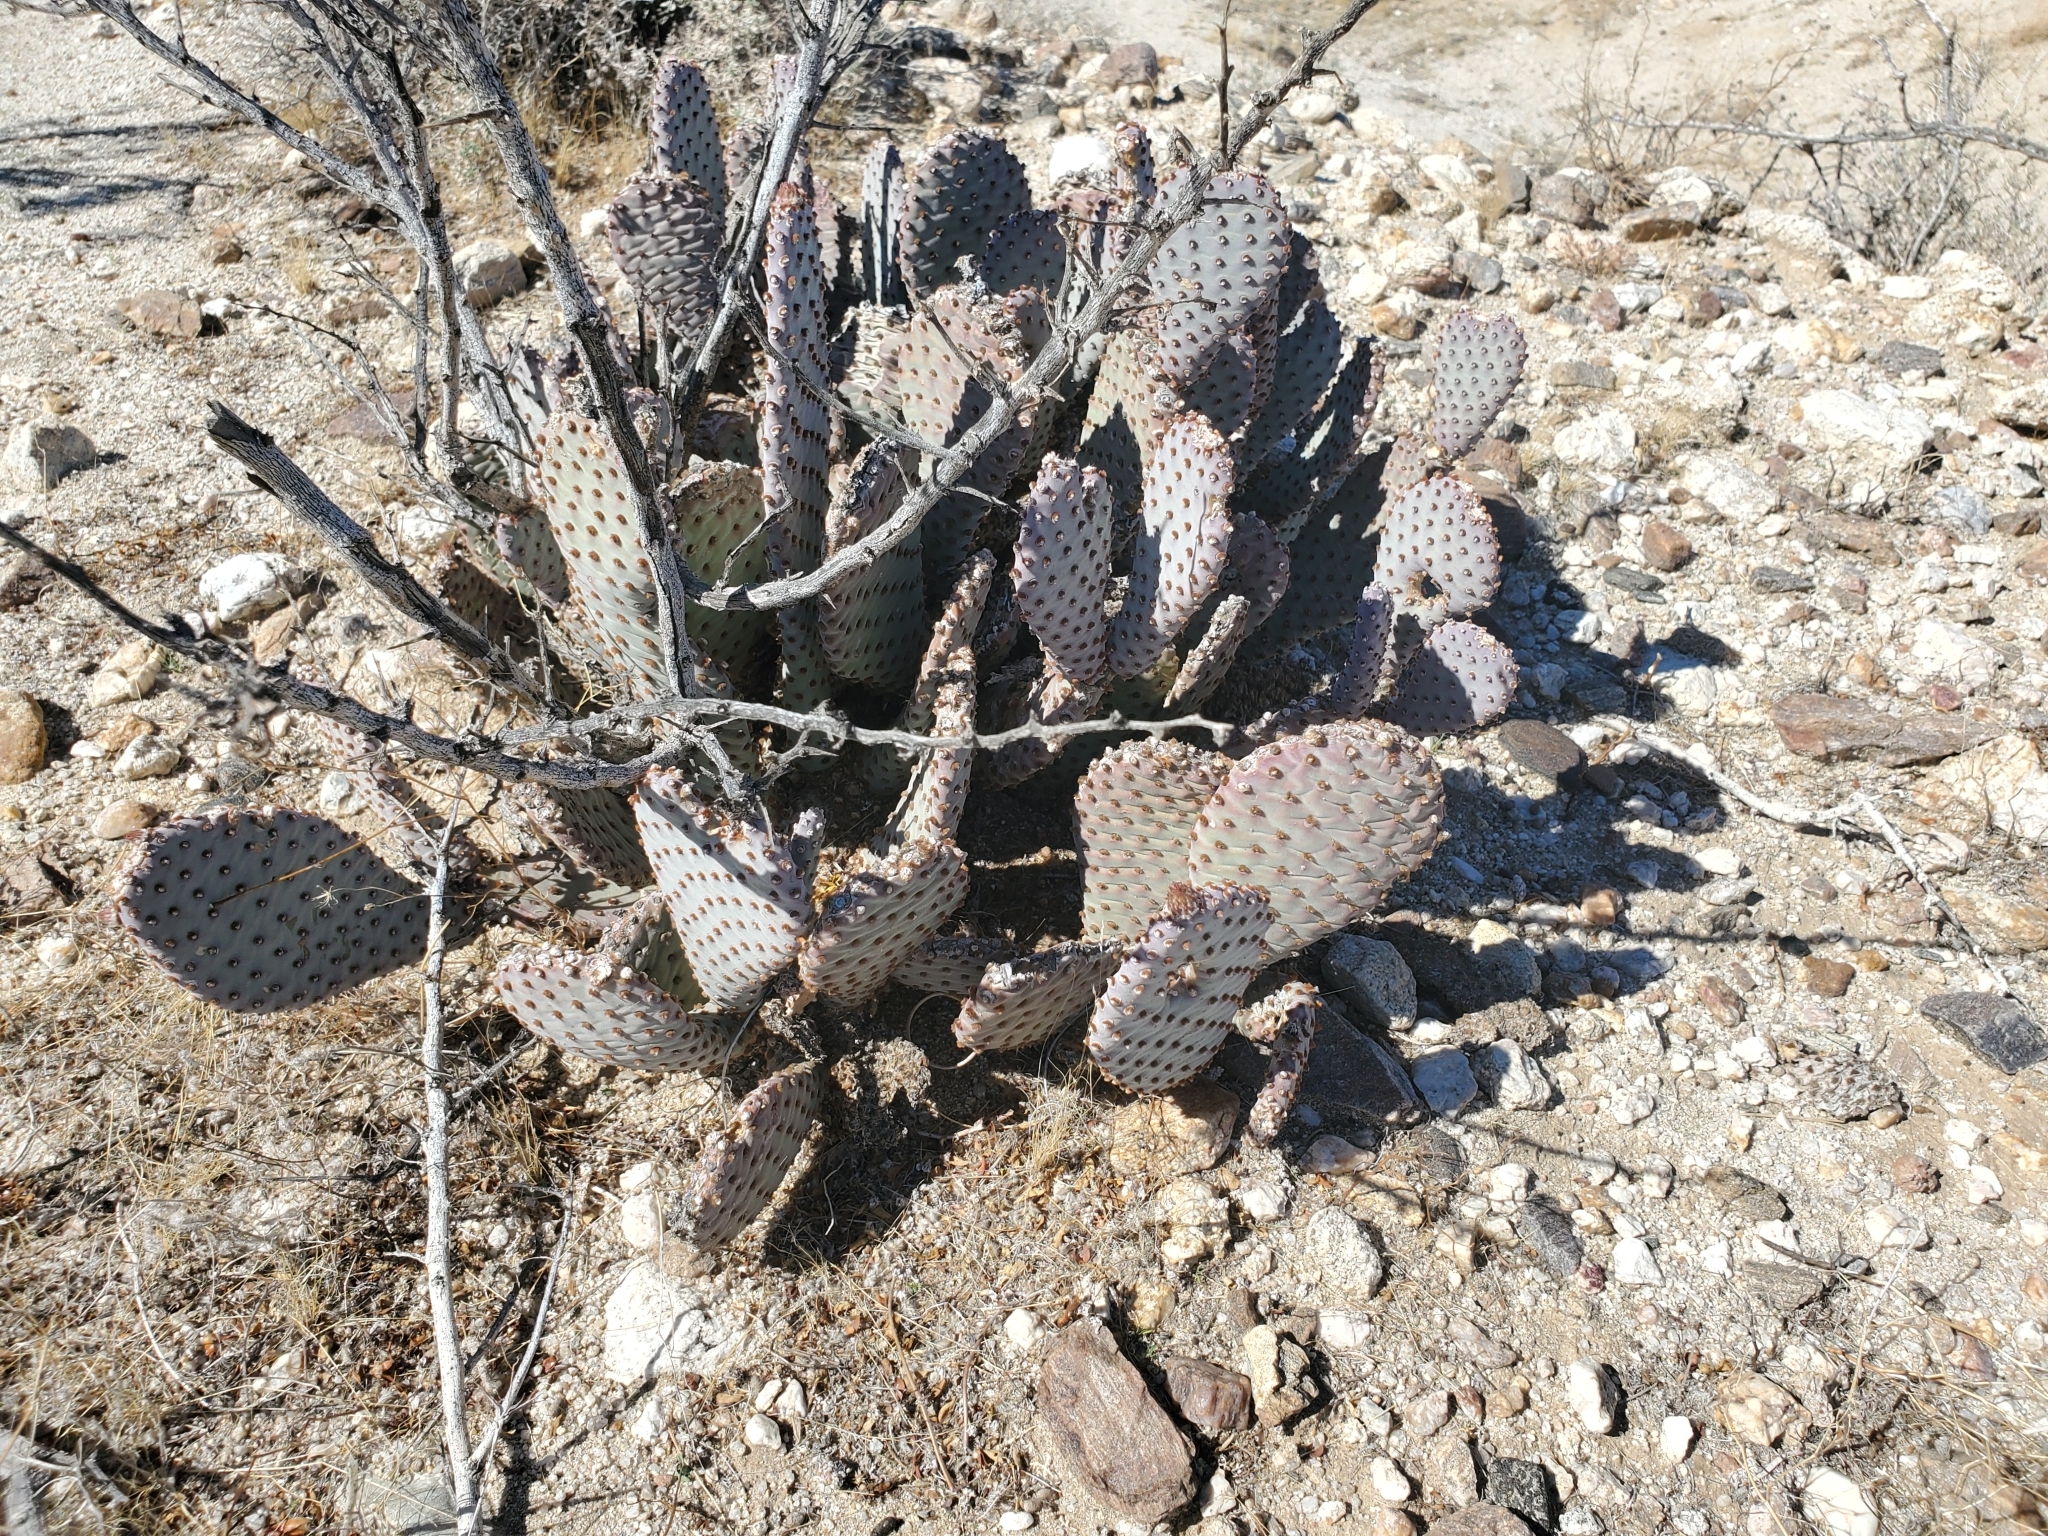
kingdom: Plantae
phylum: Tracheophyta
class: Magnoliopsida
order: Caryophyllales
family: Cactaceae
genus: Opuntia
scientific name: Opuntia basilaris
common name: Beavertail prickly-pear
